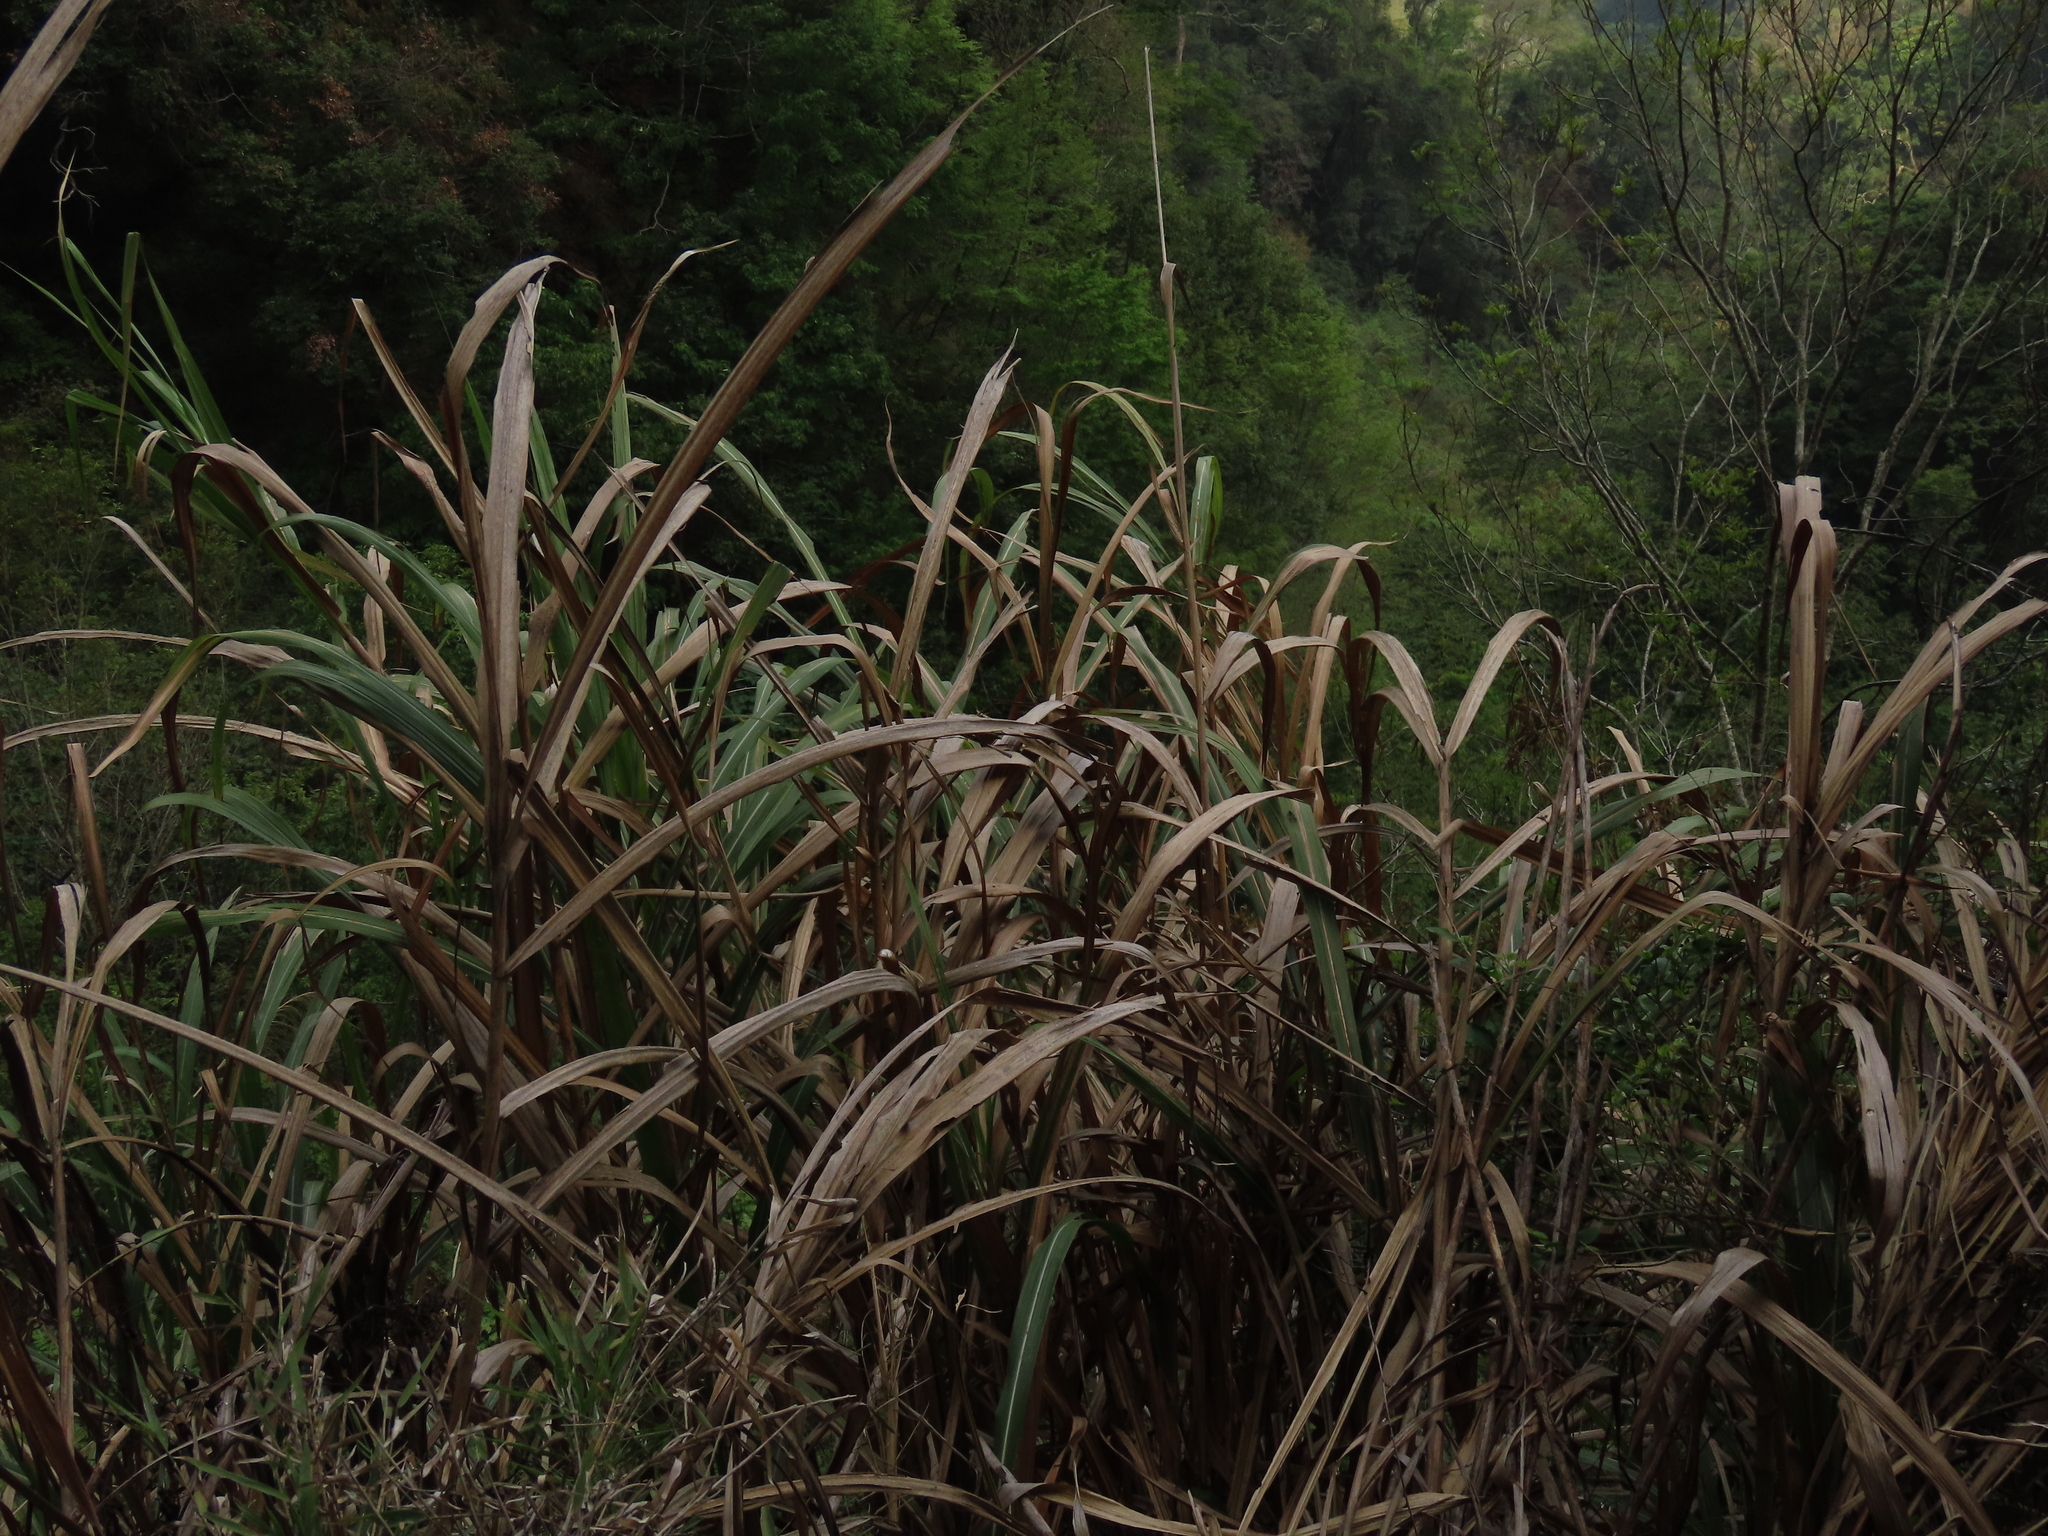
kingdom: Plantae
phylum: Tracheophyta
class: Liliopsida
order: Poales
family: Poaceae
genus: Miscanthus
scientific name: Miscanthus sinensis
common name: Chinese silvergrass
